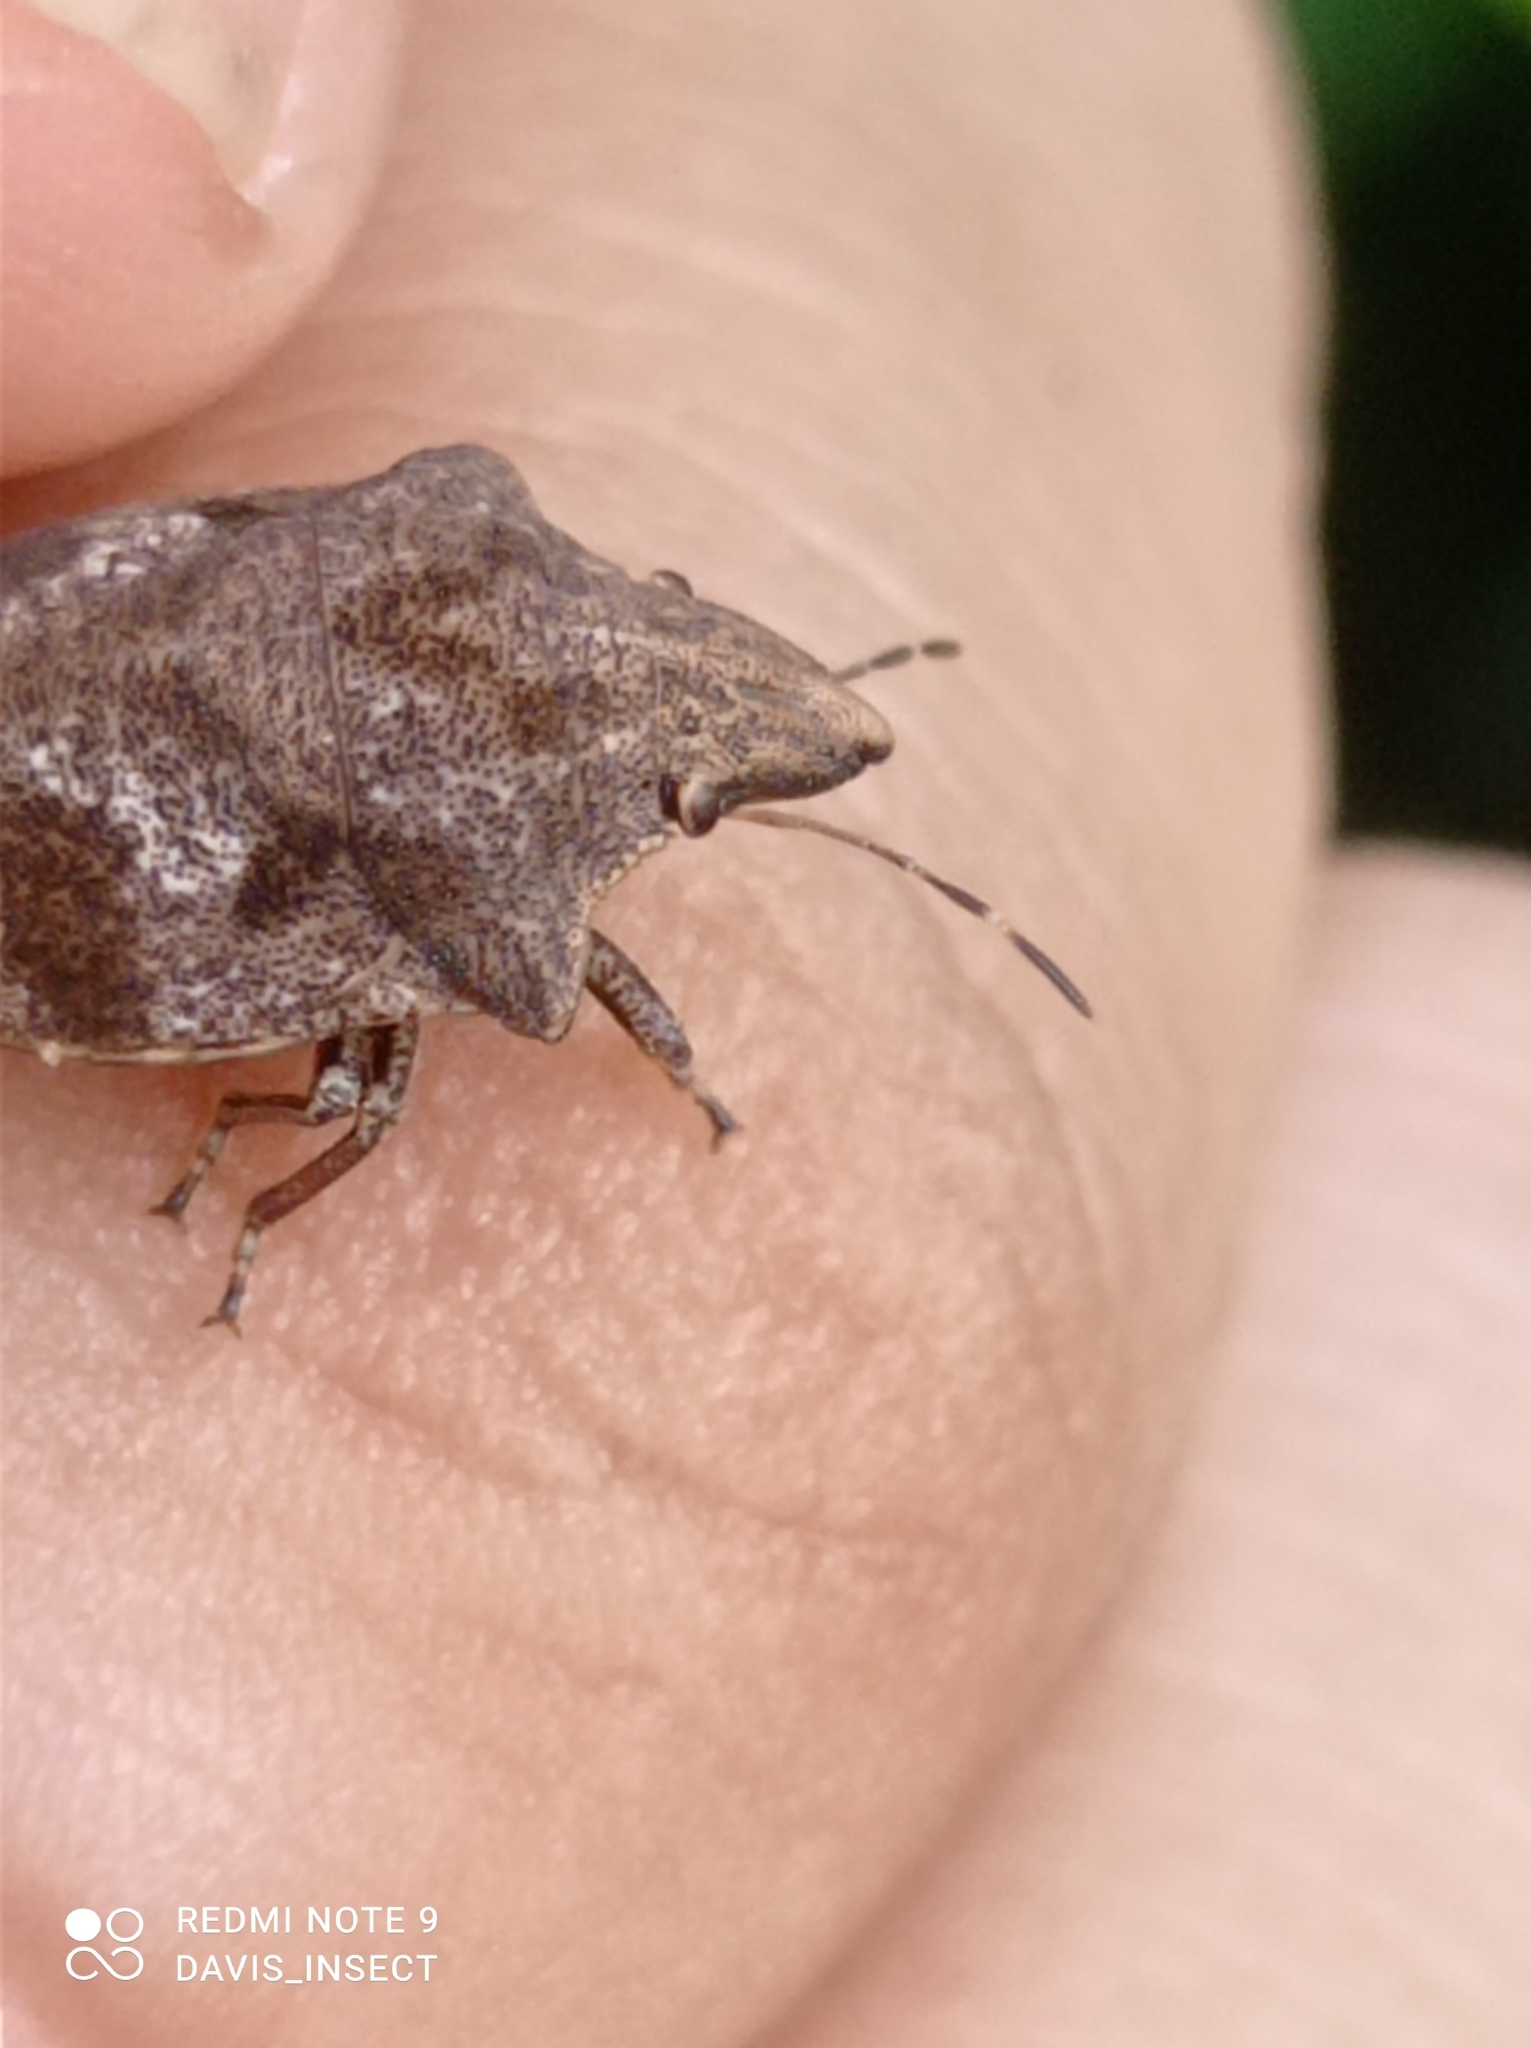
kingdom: Animalia
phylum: Arthropoda
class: Insecta
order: Hemiptera
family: Scutelleridae
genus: Hotea
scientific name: Hotea curculionoides
